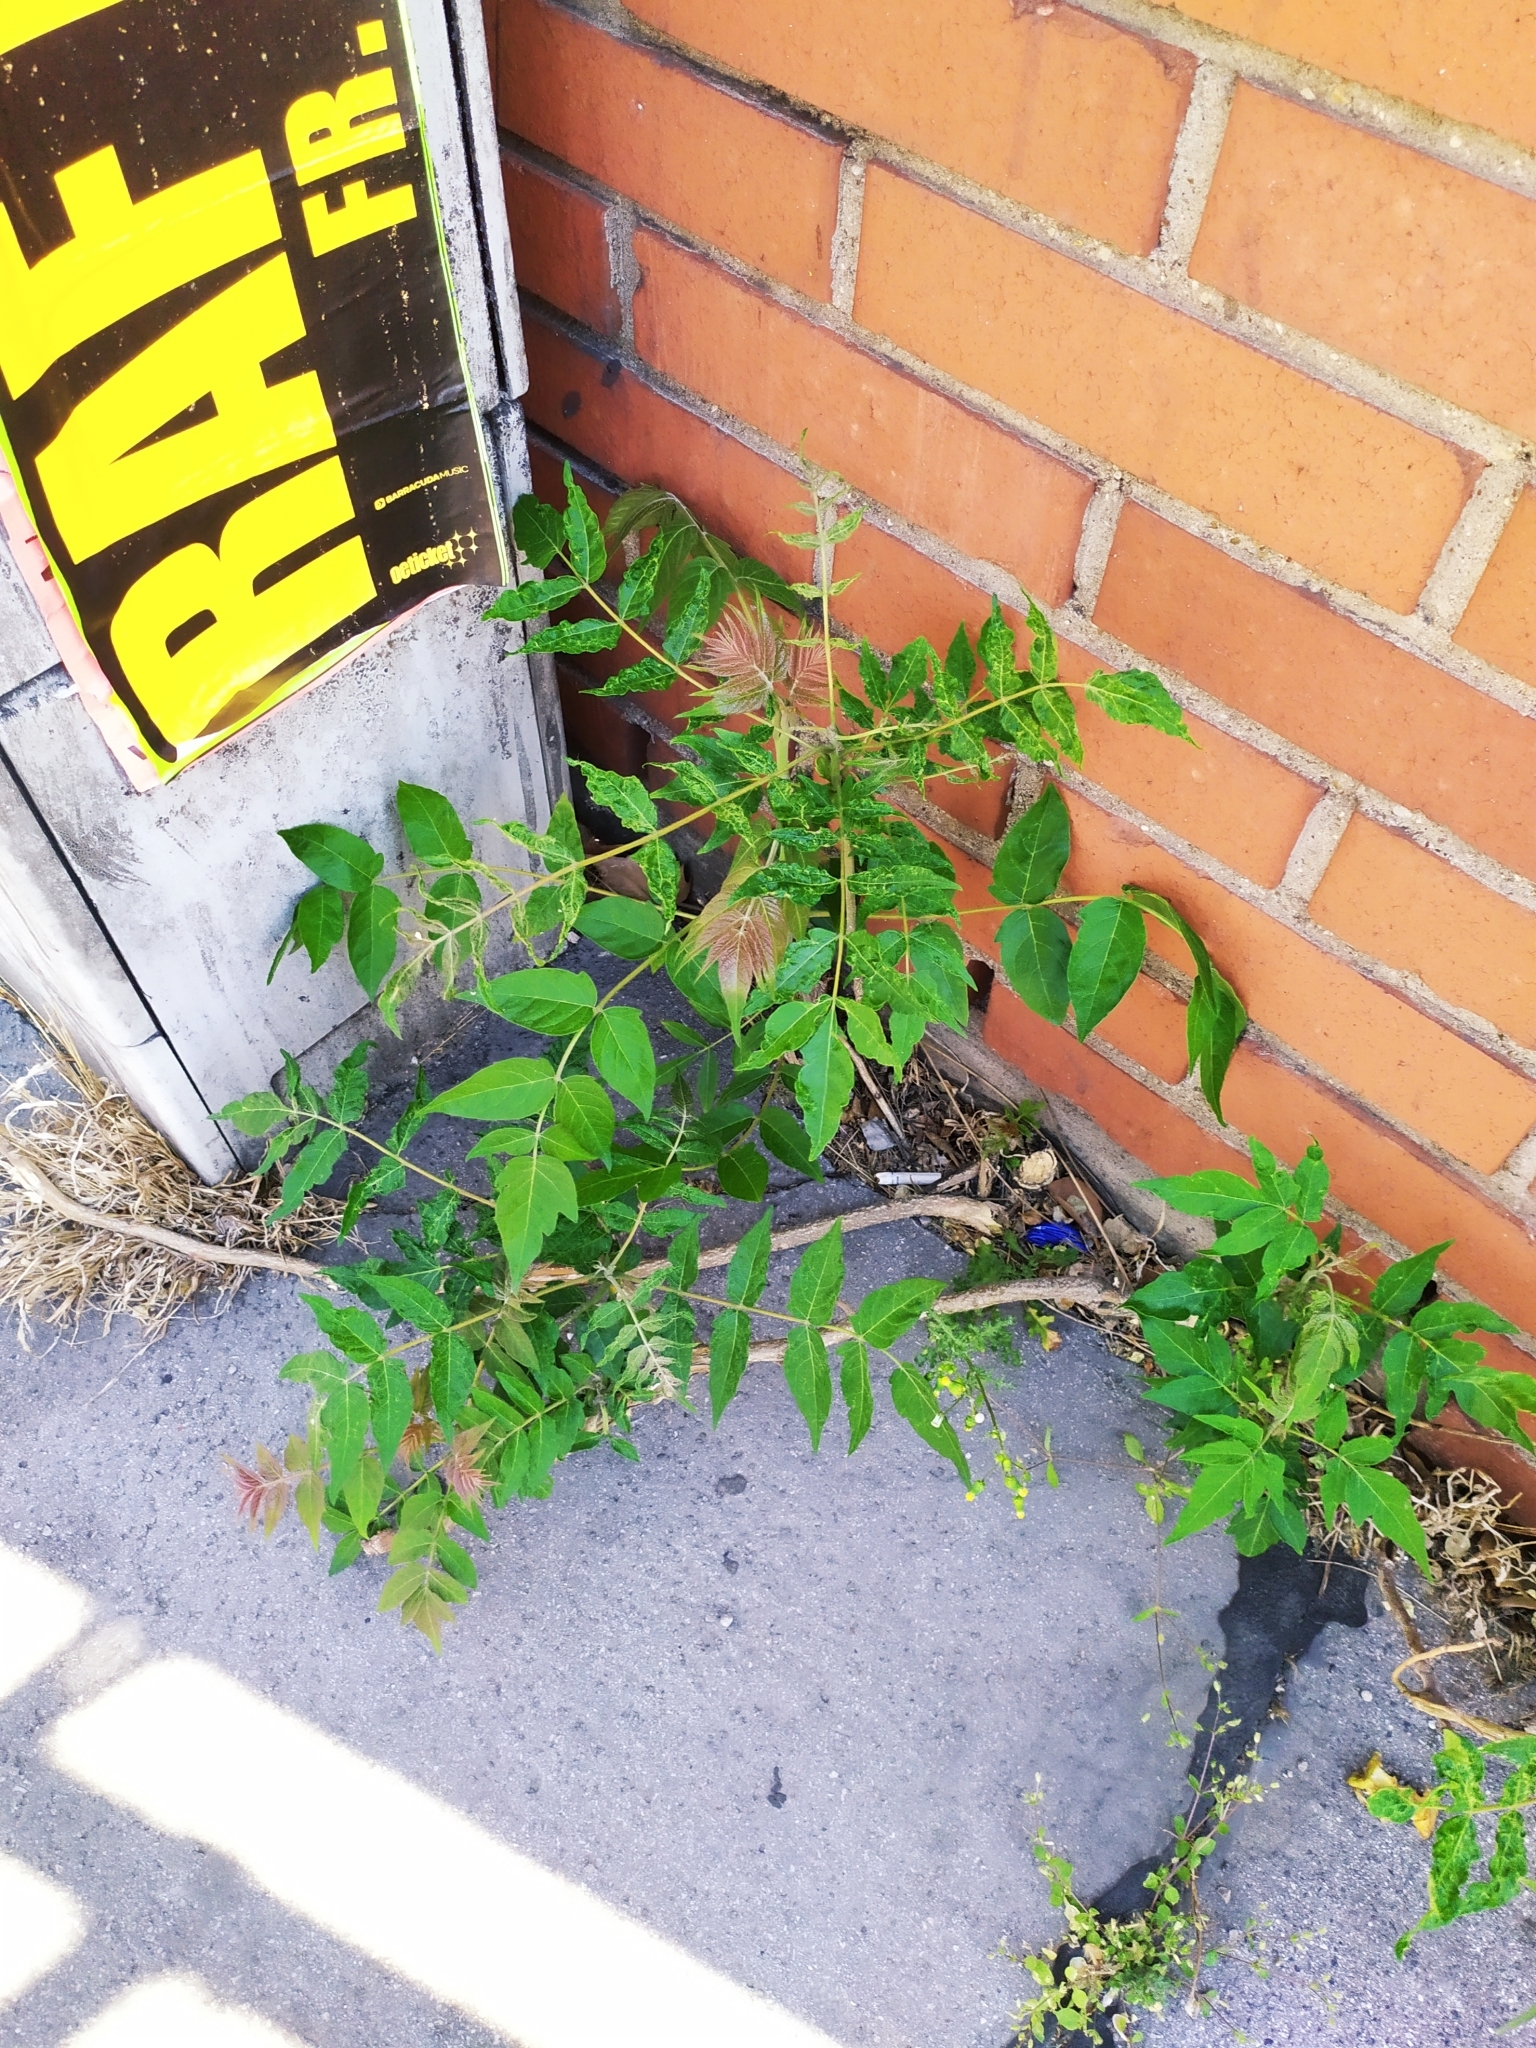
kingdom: Plantae
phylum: Tracheophyta
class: Magnoliopsida
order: Sapindales
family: Simaroubaceae
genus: Ailanthus
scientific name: Ailanthus altissima
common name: Tree-of-heaven
